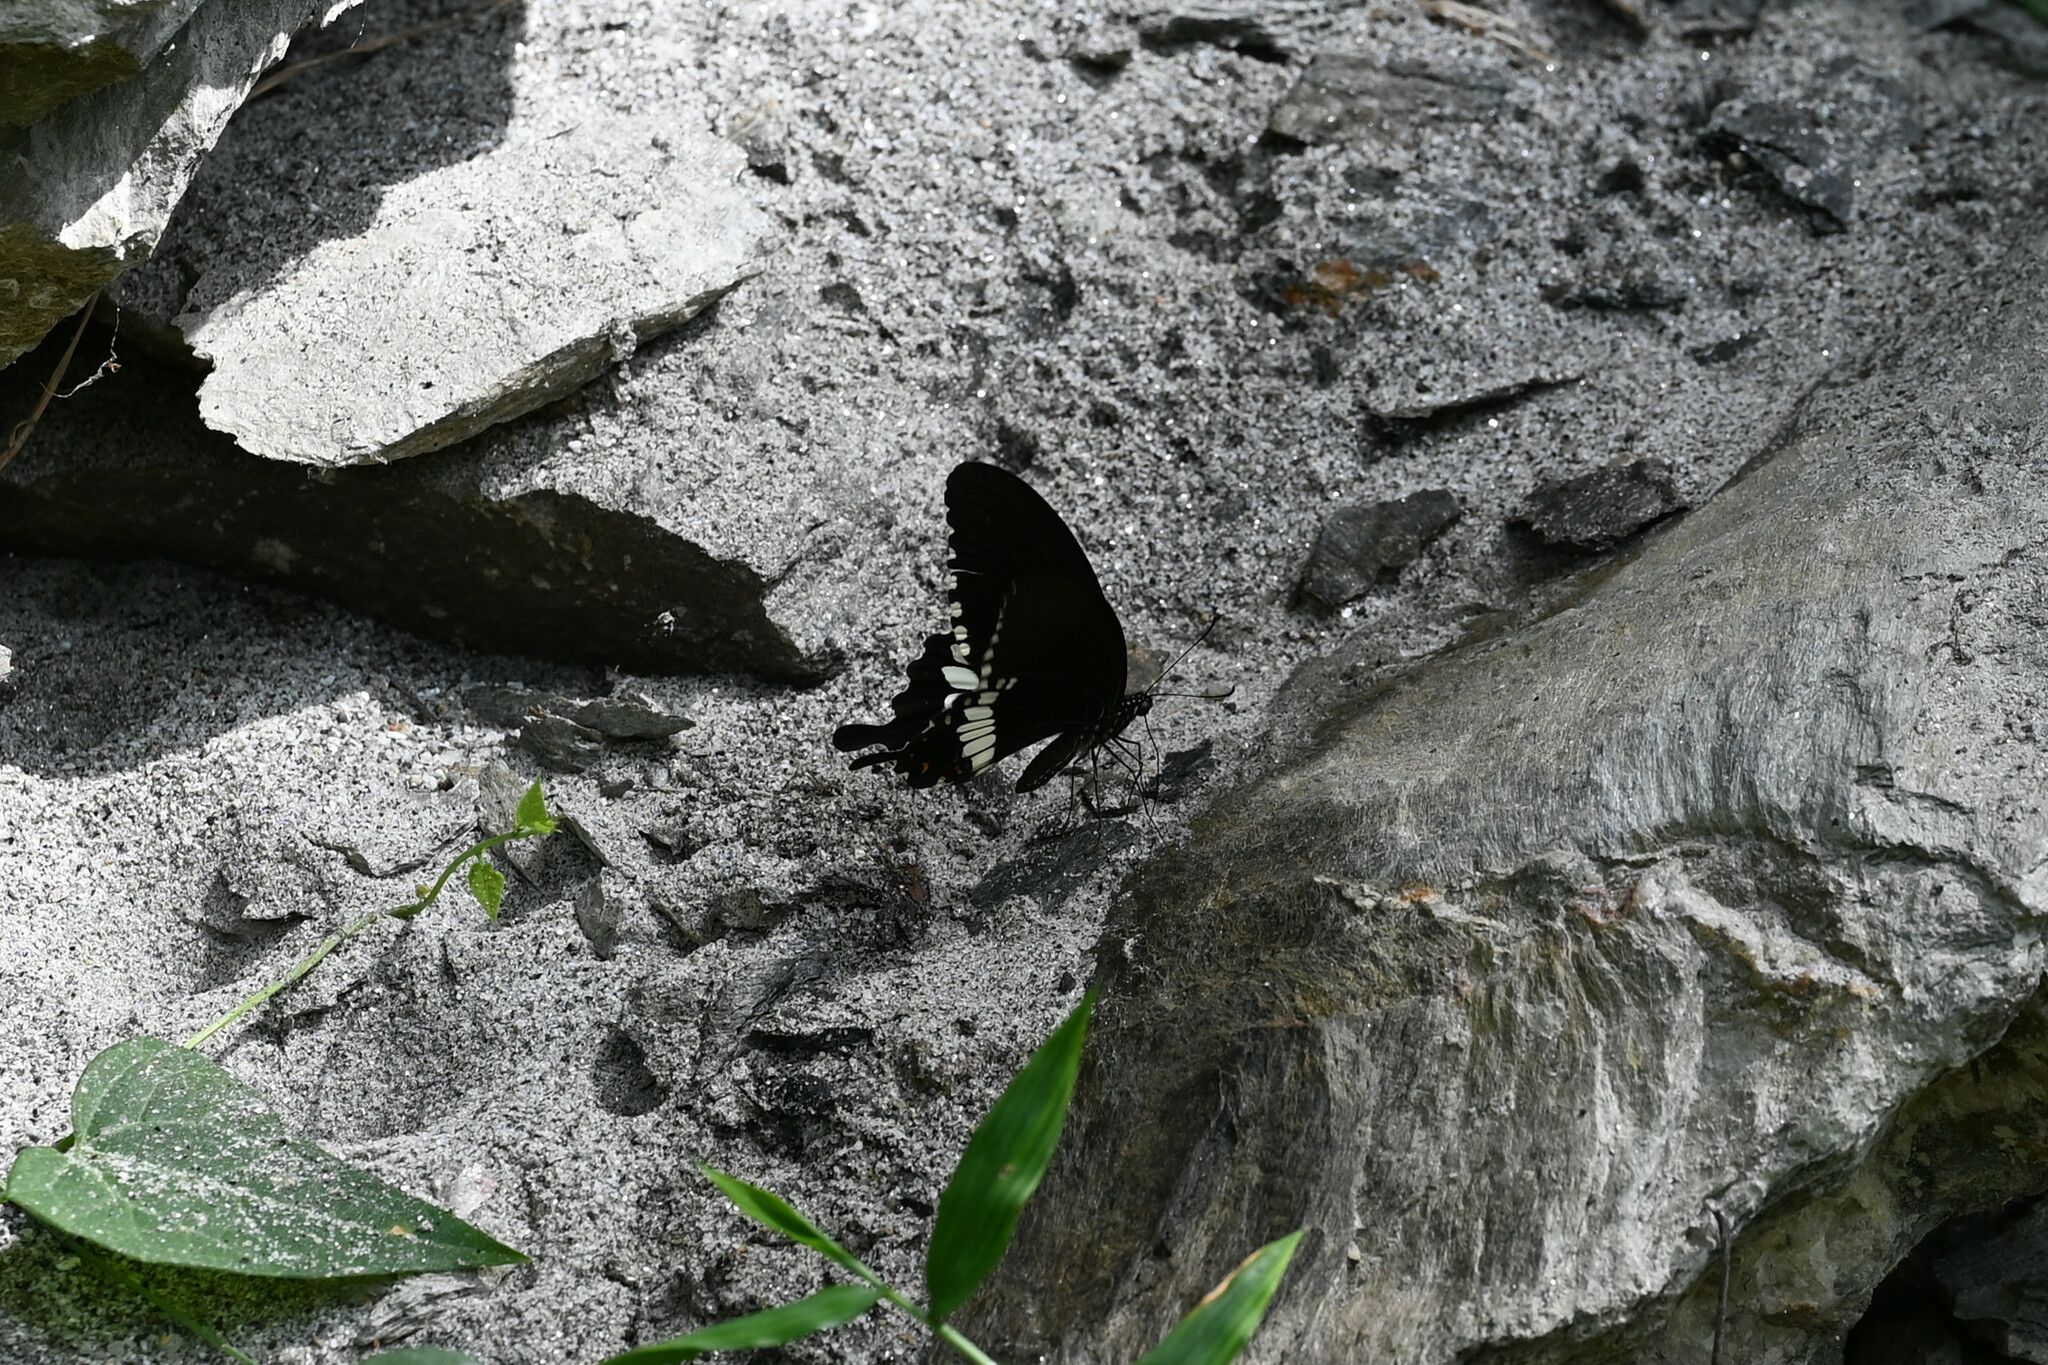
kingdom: Animalia
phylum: Arthropoda
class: Insecta
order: Lepidoptera
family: Papilionidae
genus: Papilio
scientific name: Papilio polytes
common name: Common mormon
